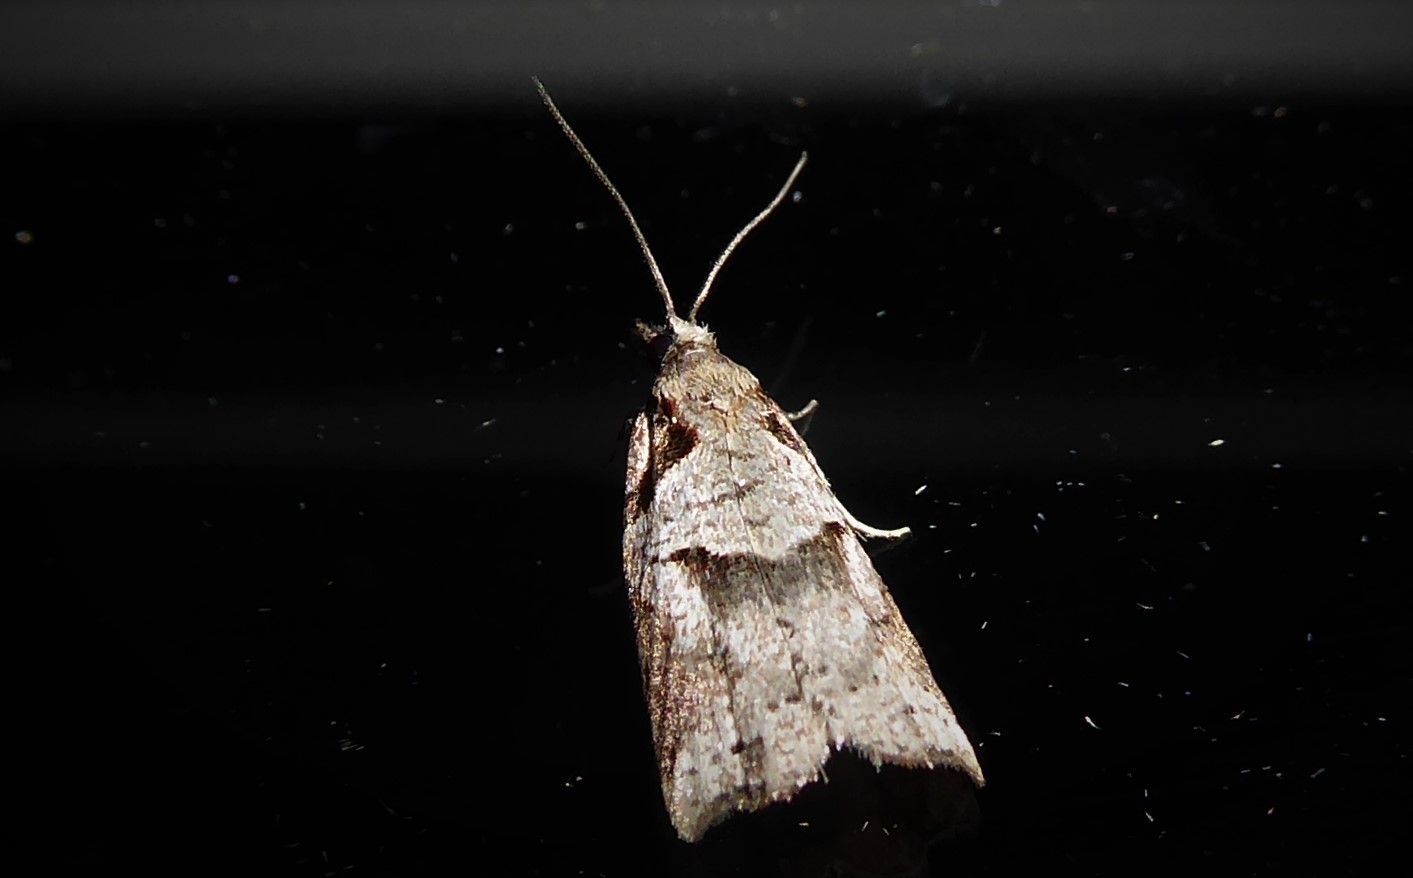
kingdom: Animalia
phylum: Arthropoda
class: Insecta
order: Lepidoptera
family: Tortricidae
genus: Harmologa
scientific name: Harmologa amplexana
